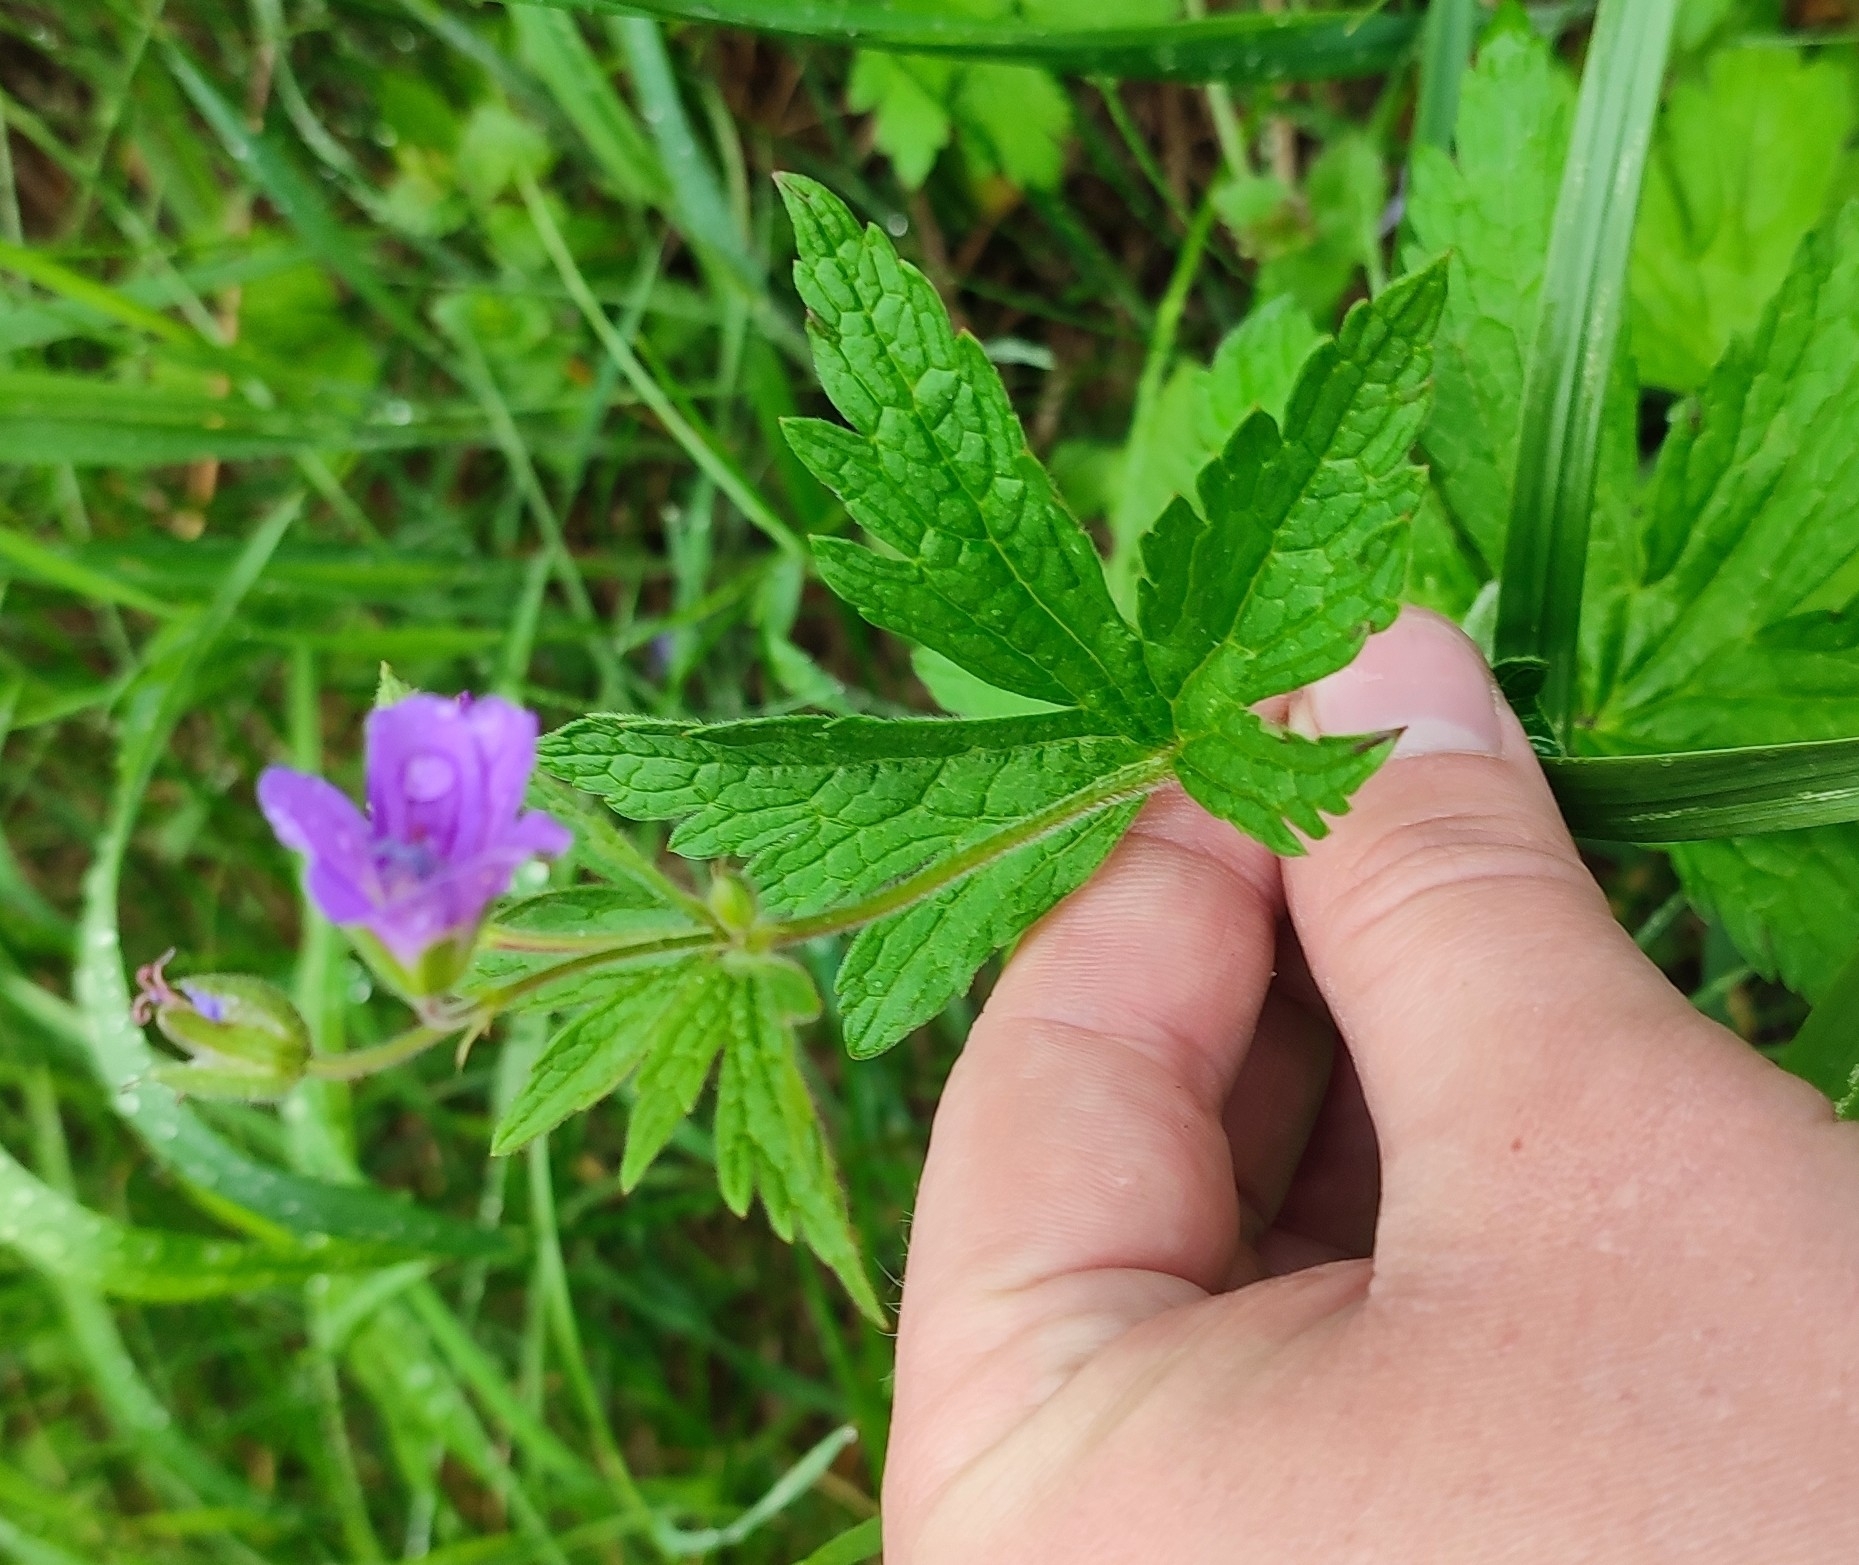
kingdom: Plantae
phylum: Tracheophyta
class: Magnoliopsida
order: Geraniales
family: Geraniaceae
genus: Geranium
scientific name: Geranium sylvaticum
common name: Wood crane's-bill
